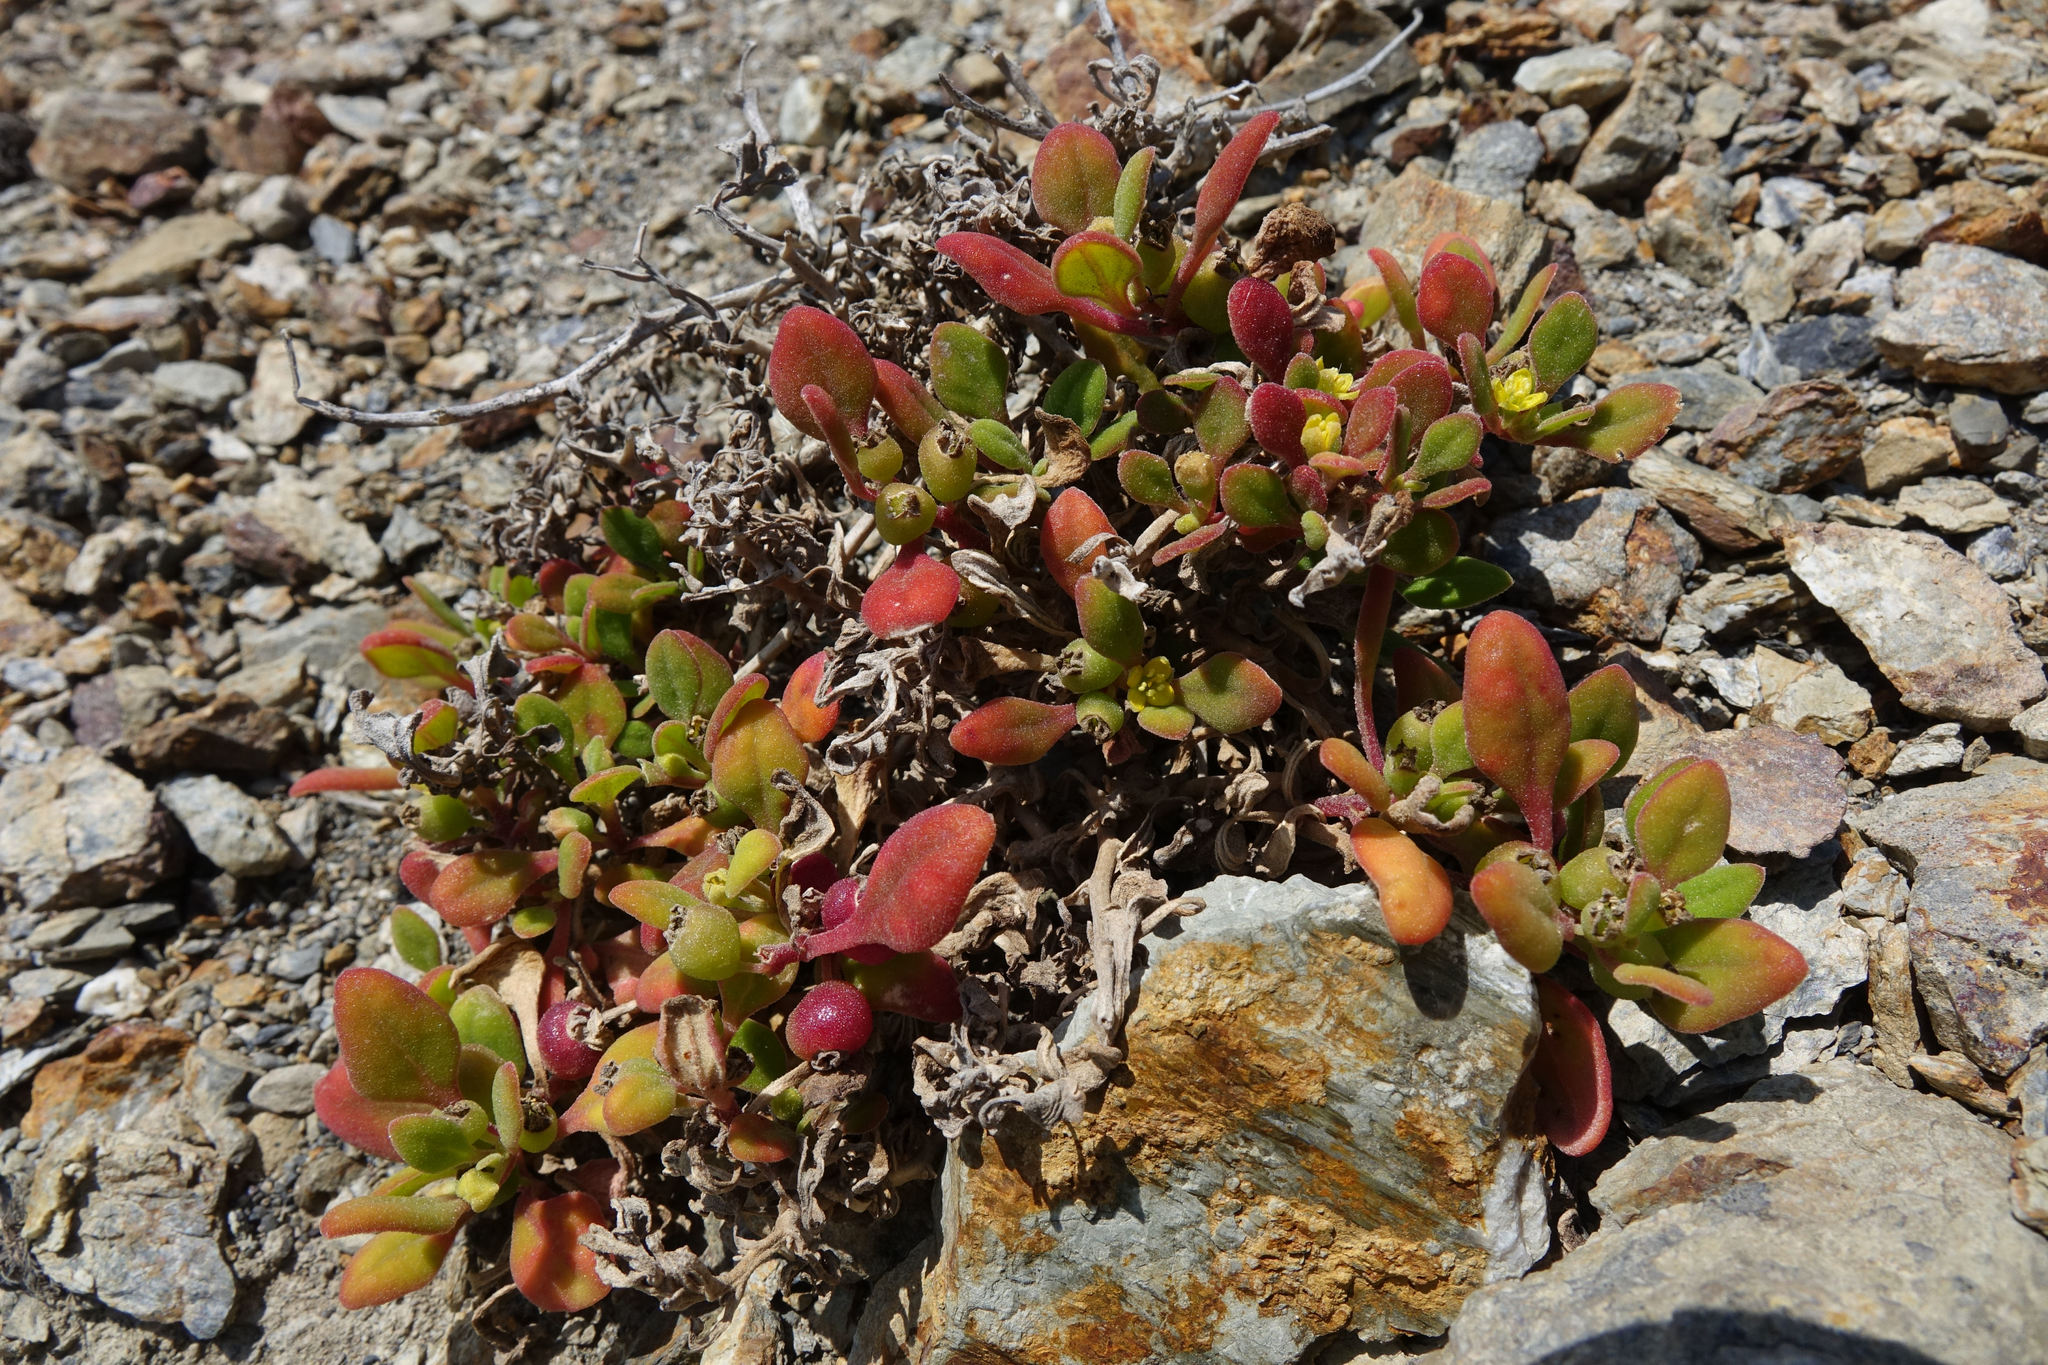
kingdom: Plantae
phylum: Tracheophyta
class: Magnoliopsida
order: Caryophyllales
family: Aizoaceae
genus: Tetragonia
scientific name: Tetragonia implexicoma
